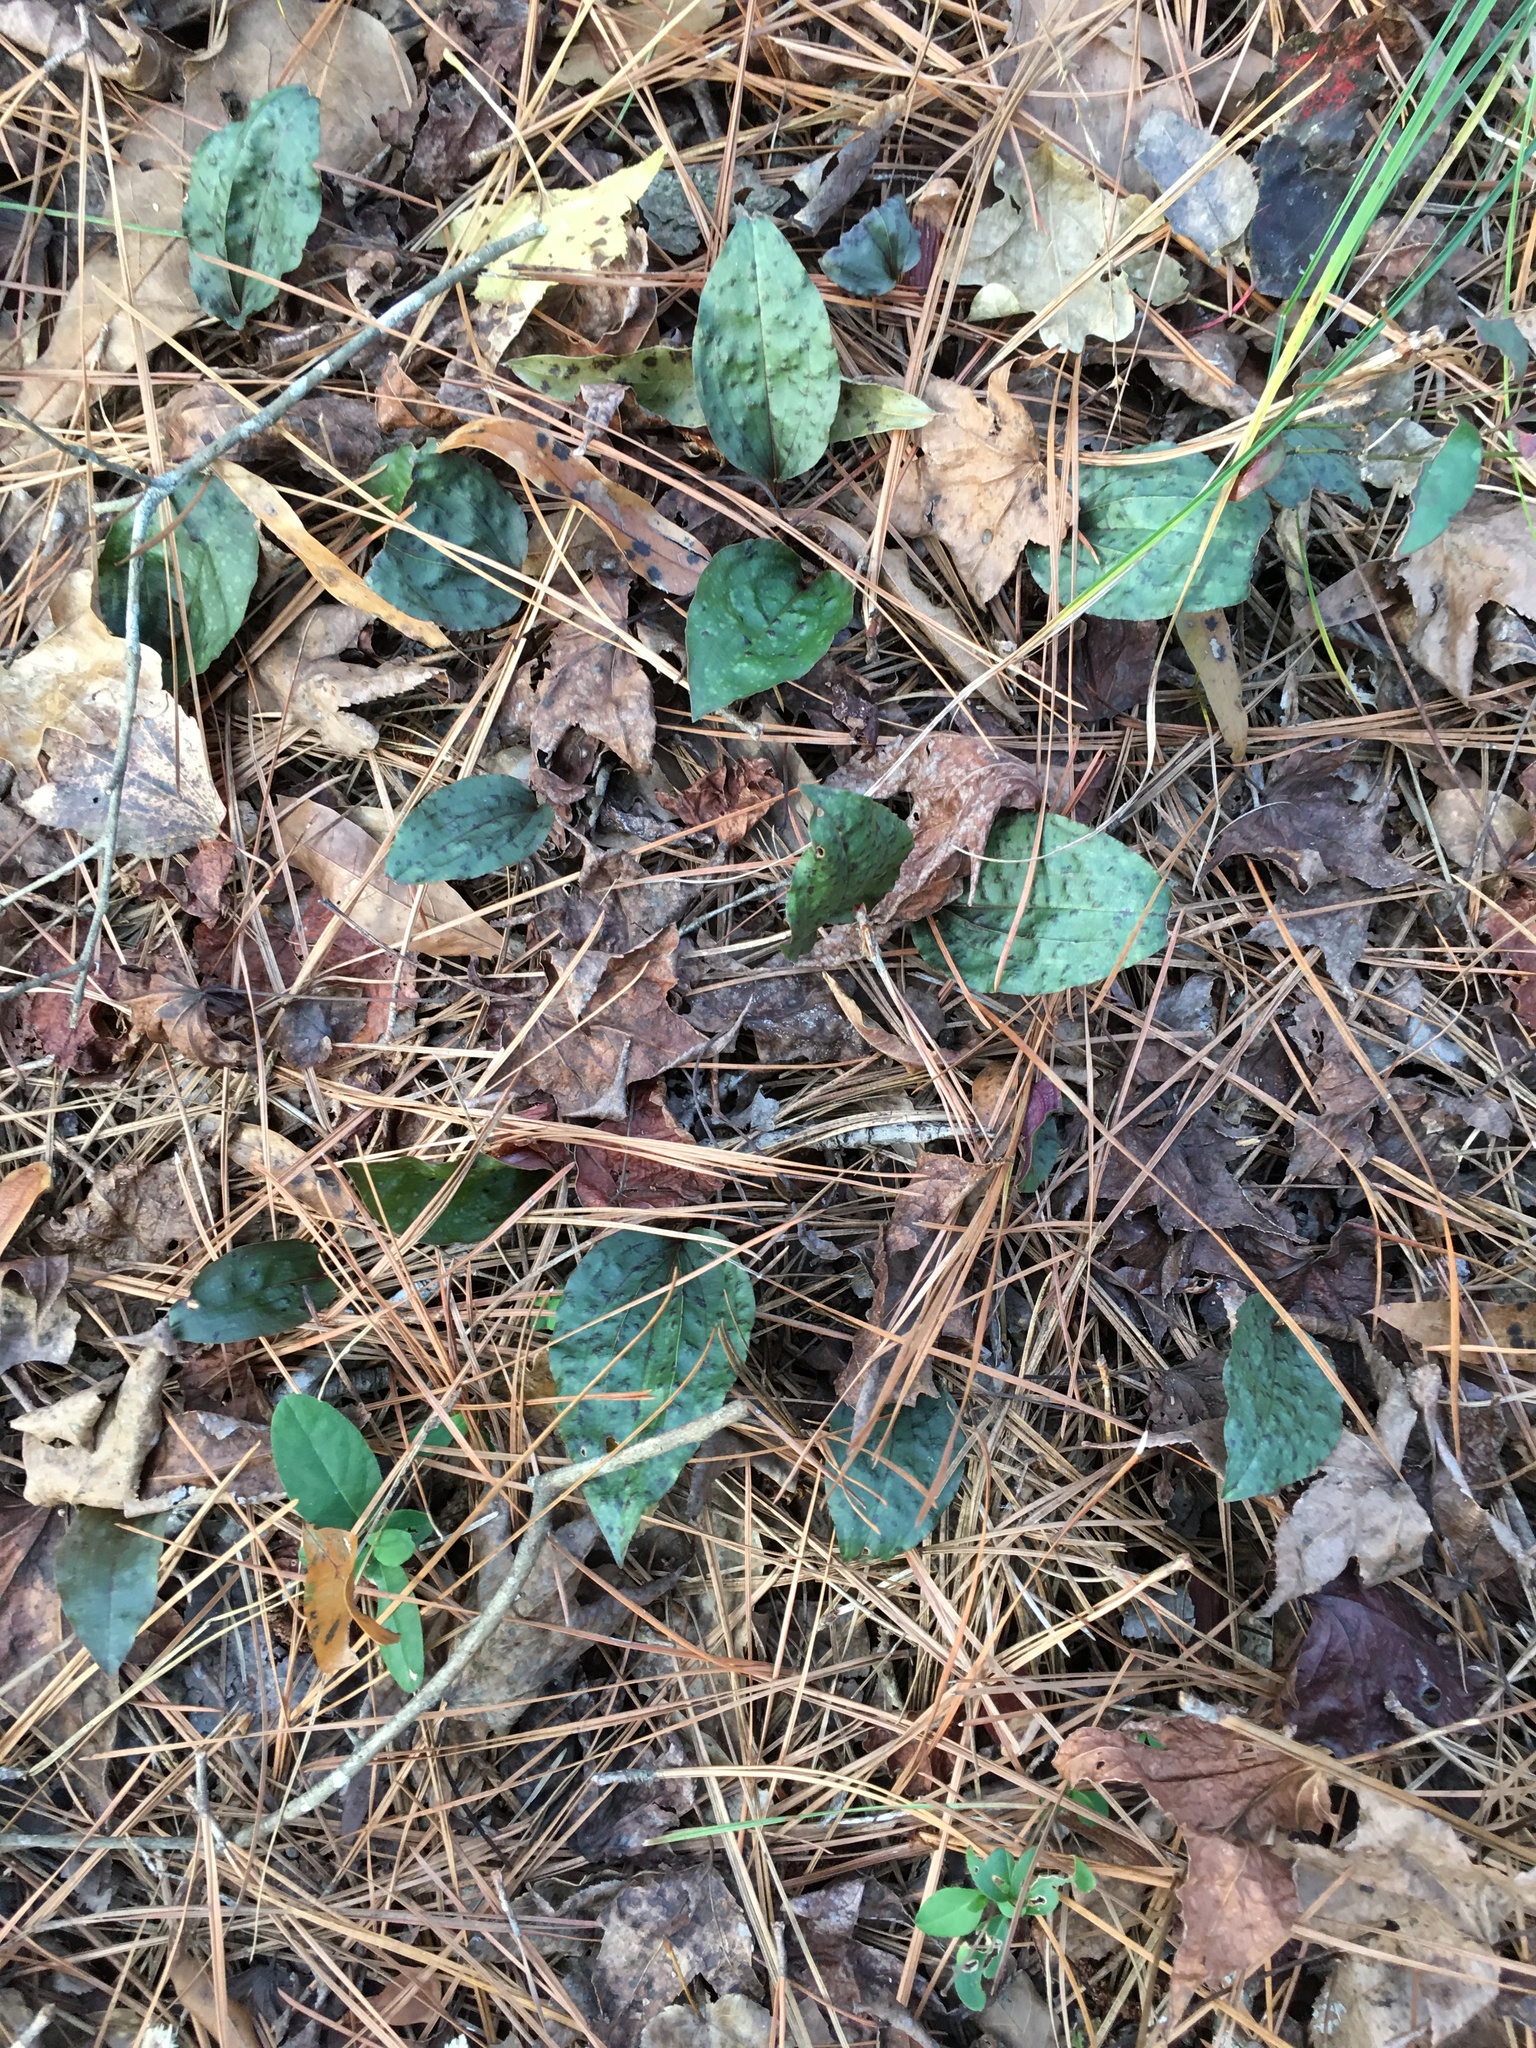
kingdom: Plantae
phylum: Tracheophyta
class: Liliopsida
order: Asparagales
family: Orchidaceae
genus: Tipularia
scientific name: Tipularia discolor
